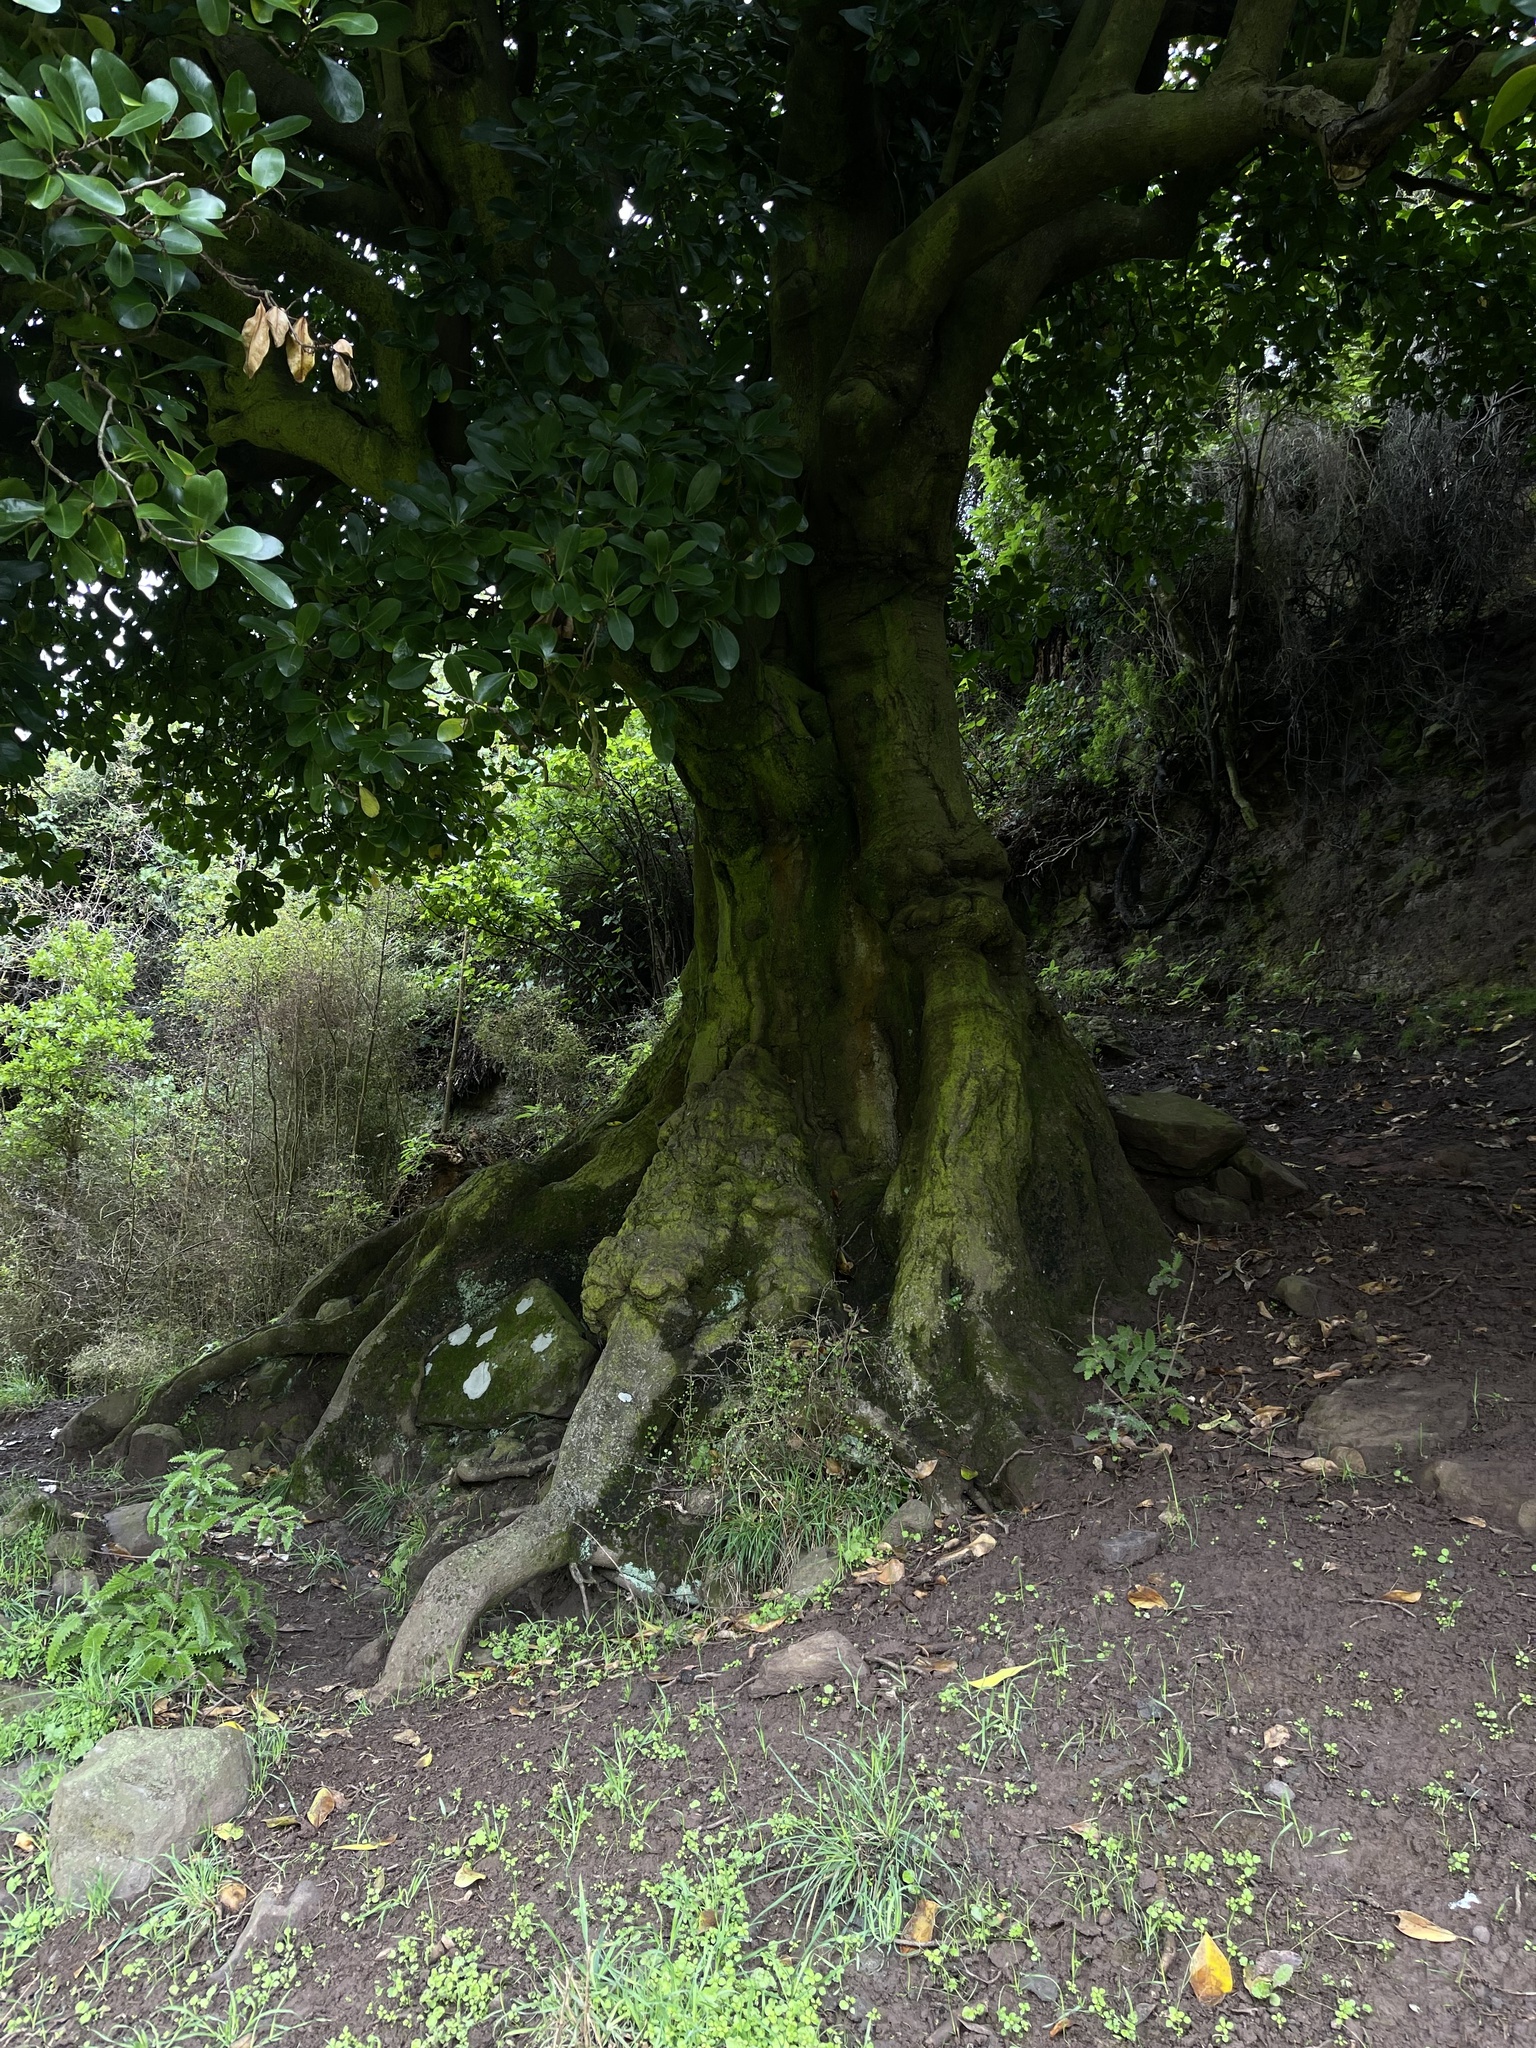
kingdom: Plantae
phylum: Tracheophyta
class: Magnoliopsida
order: Cucurbitales
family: Corynocarpaceae
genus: Corynocarpus
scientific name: Corynocarpus laevigatus
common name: New zealand laurel
